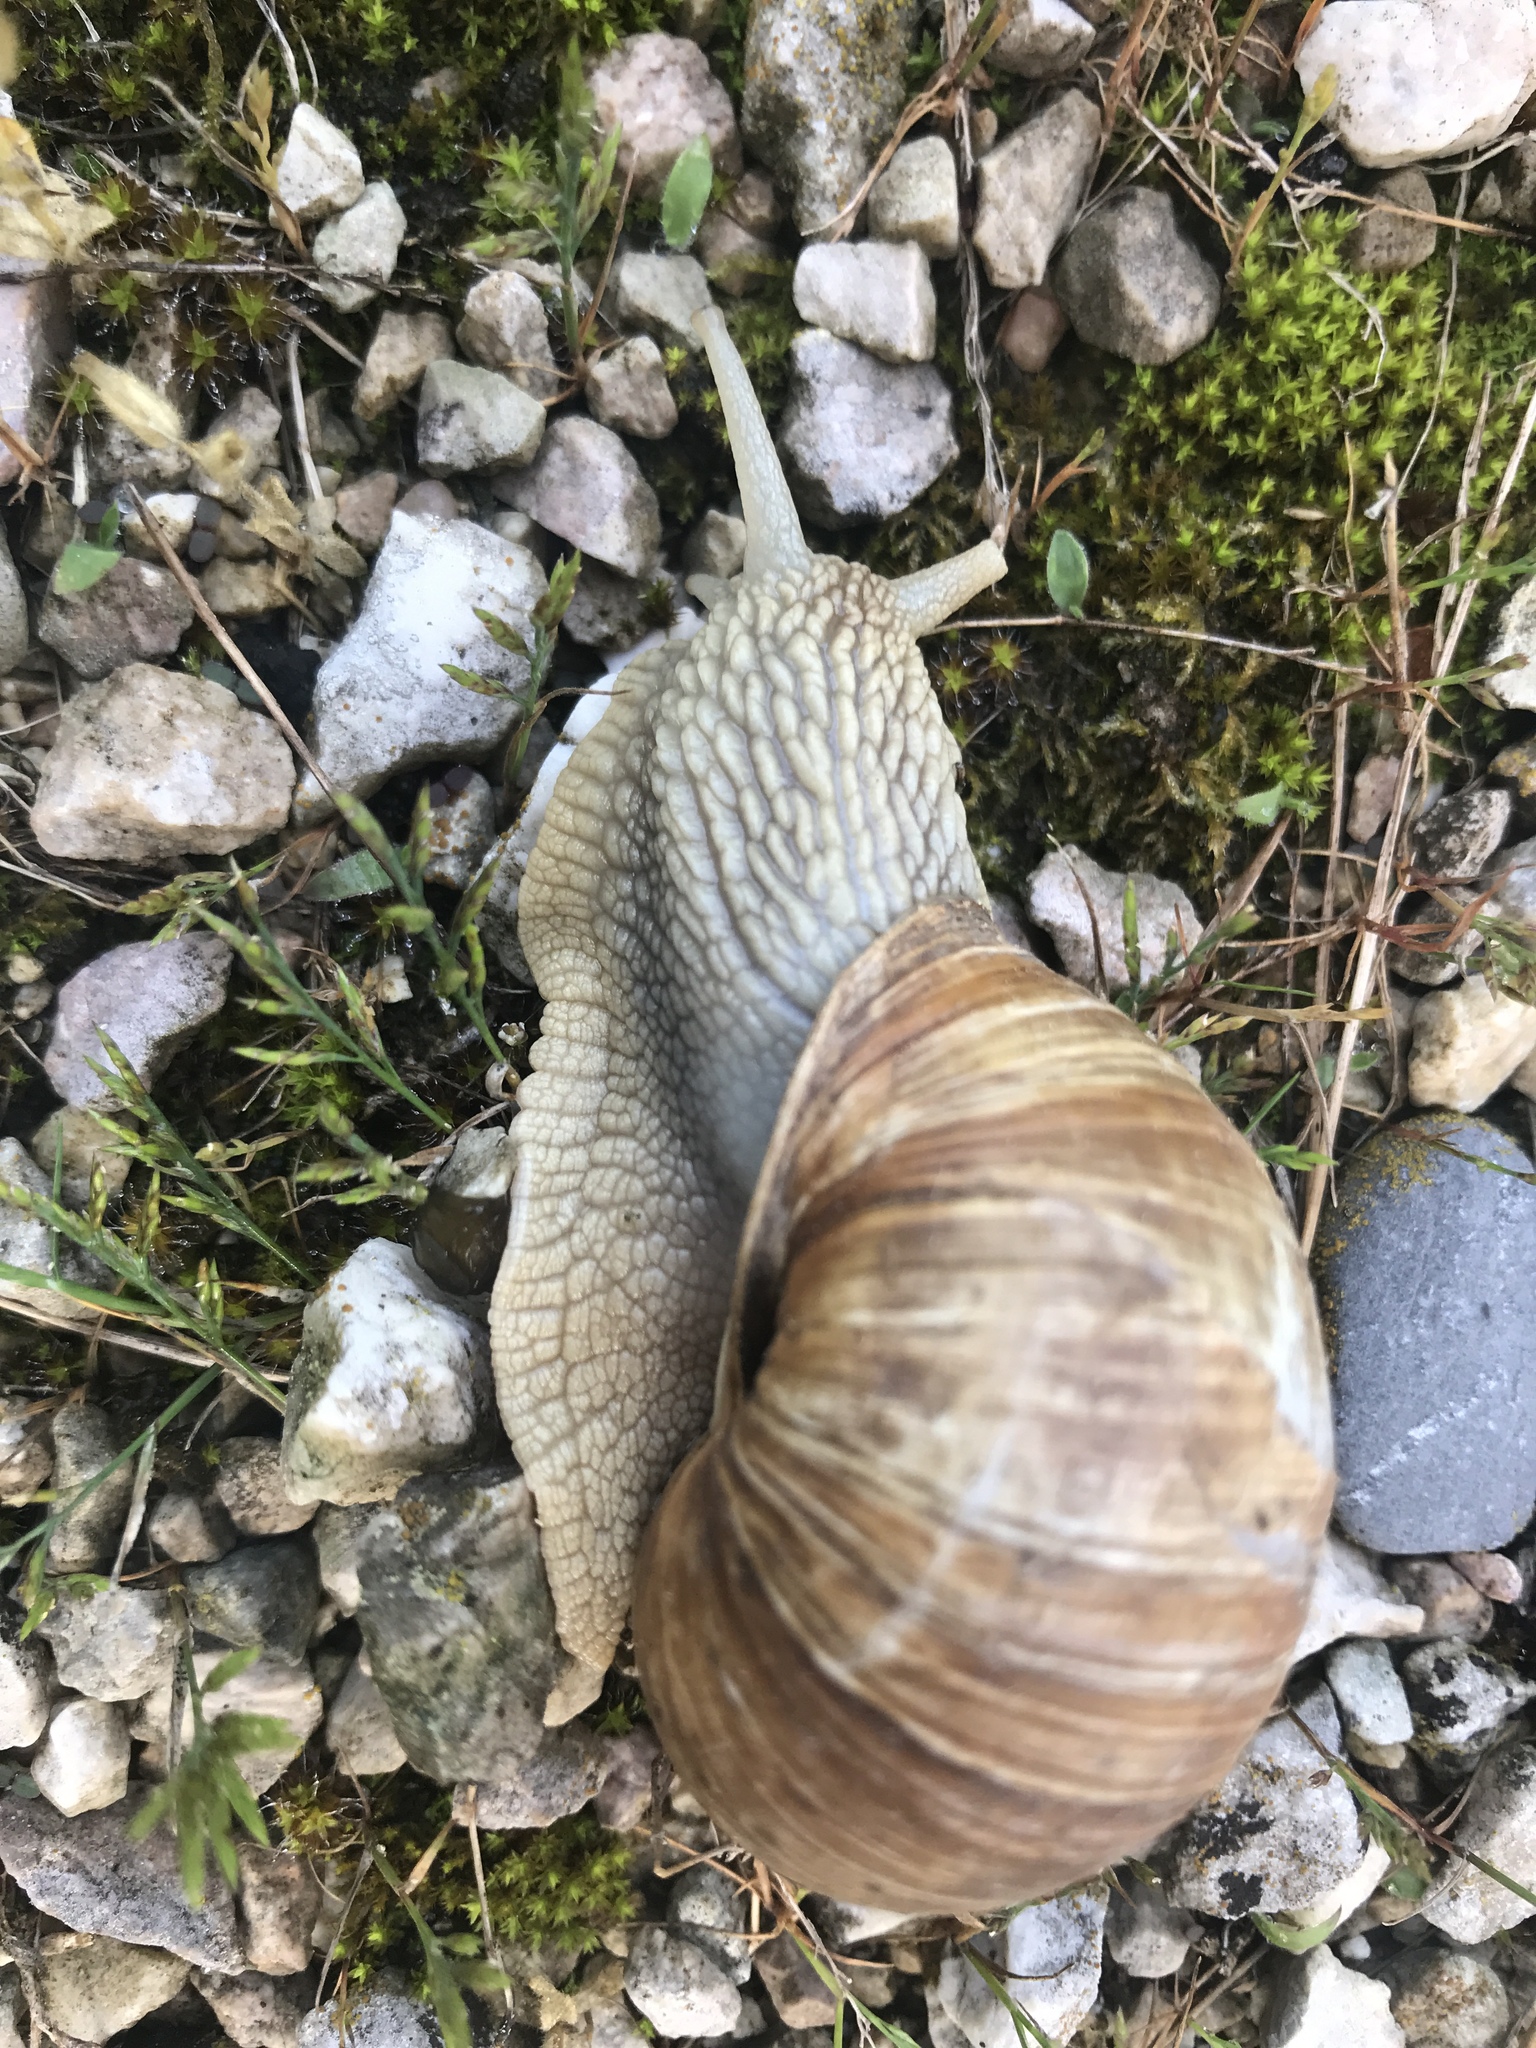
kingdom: Animalia
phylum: Mollusca
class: Gastropoda
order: Stylommatophora
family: Helicidae
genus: Helix
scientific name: Helix pomatia
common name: Roman snail
